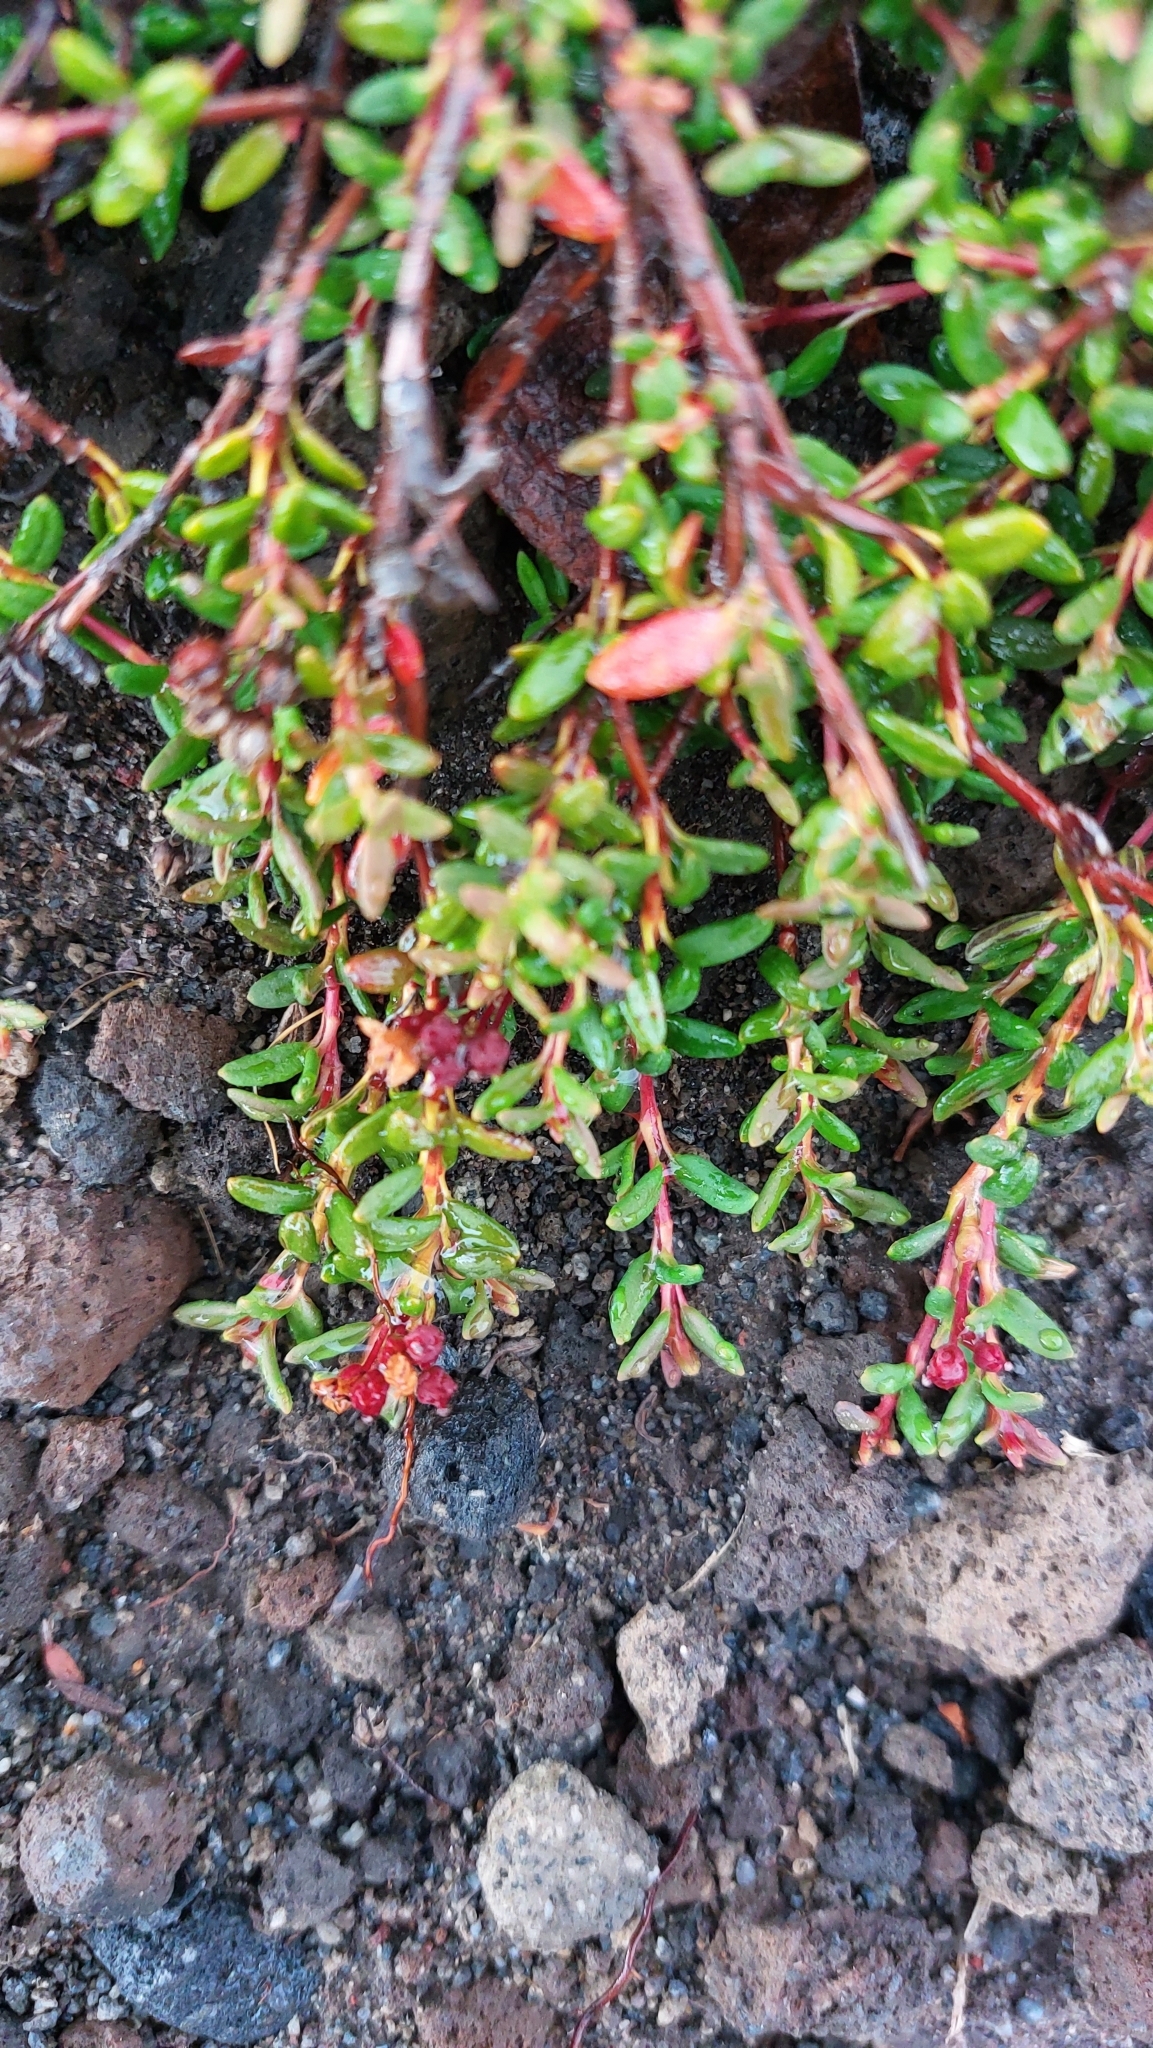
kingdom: Plantae
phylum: Tracheophyta
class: Magnoliopsida
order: Ericales
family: Ericaceae
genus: Kalmia
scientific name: Kalmia procumbens
